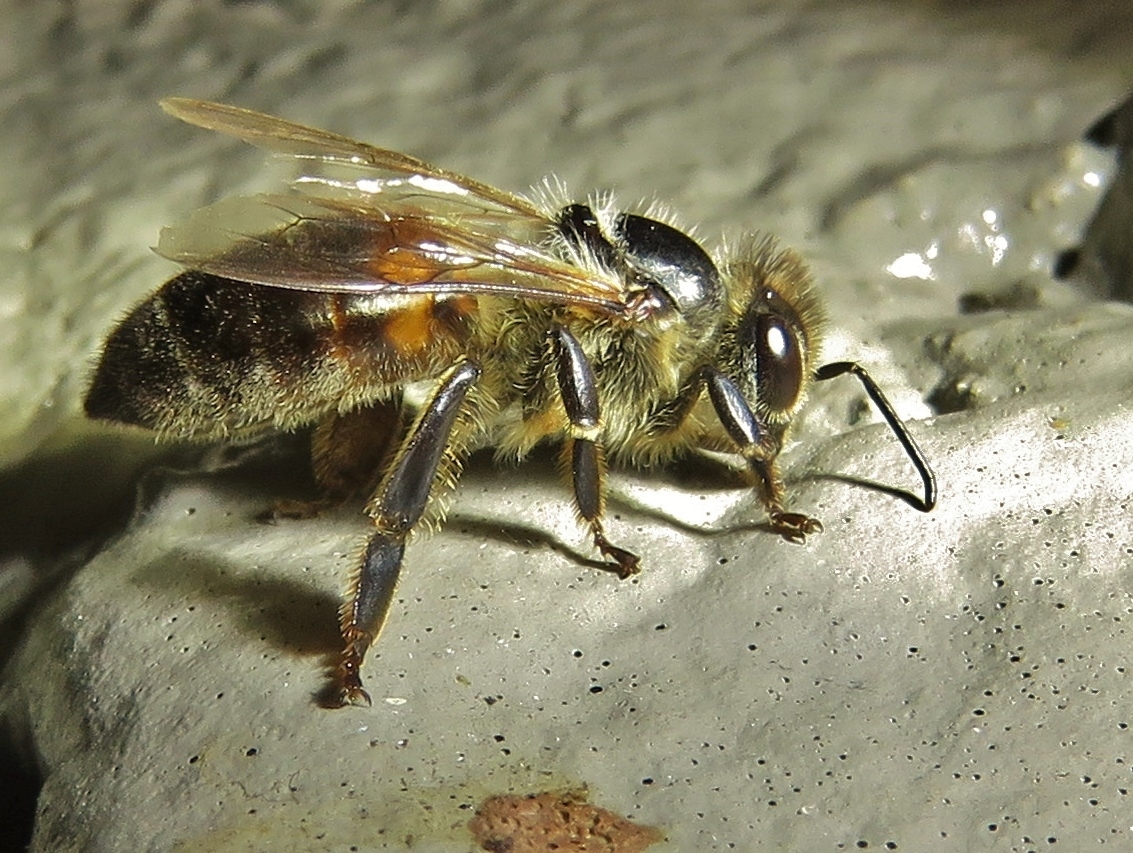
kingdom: Animalia
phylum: Arthropoda
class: Insecta
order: Hymenoptera
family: Apidae
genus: Apis
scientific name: Apis mellifera
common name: Honey bee
